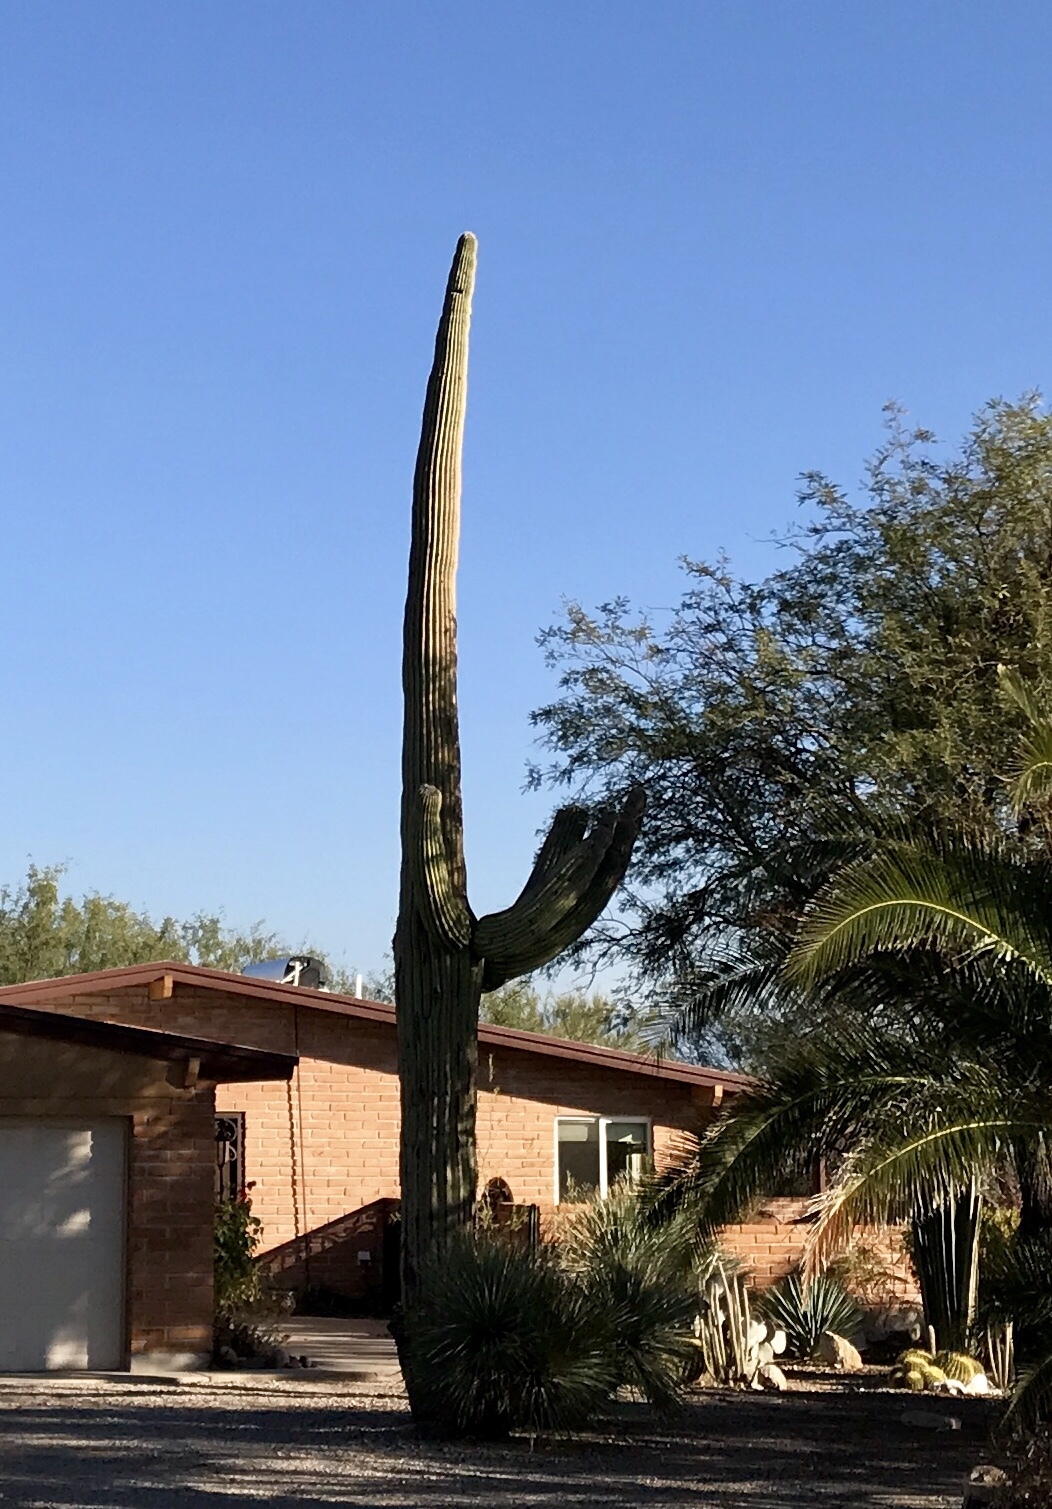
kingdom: Plantae
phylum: Tracheophyta
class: Magnoliopsida
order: Caryophyllales
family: Cactaceae
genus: Carnegiea
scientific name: Carnegiea gigantea
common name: Saguaro
